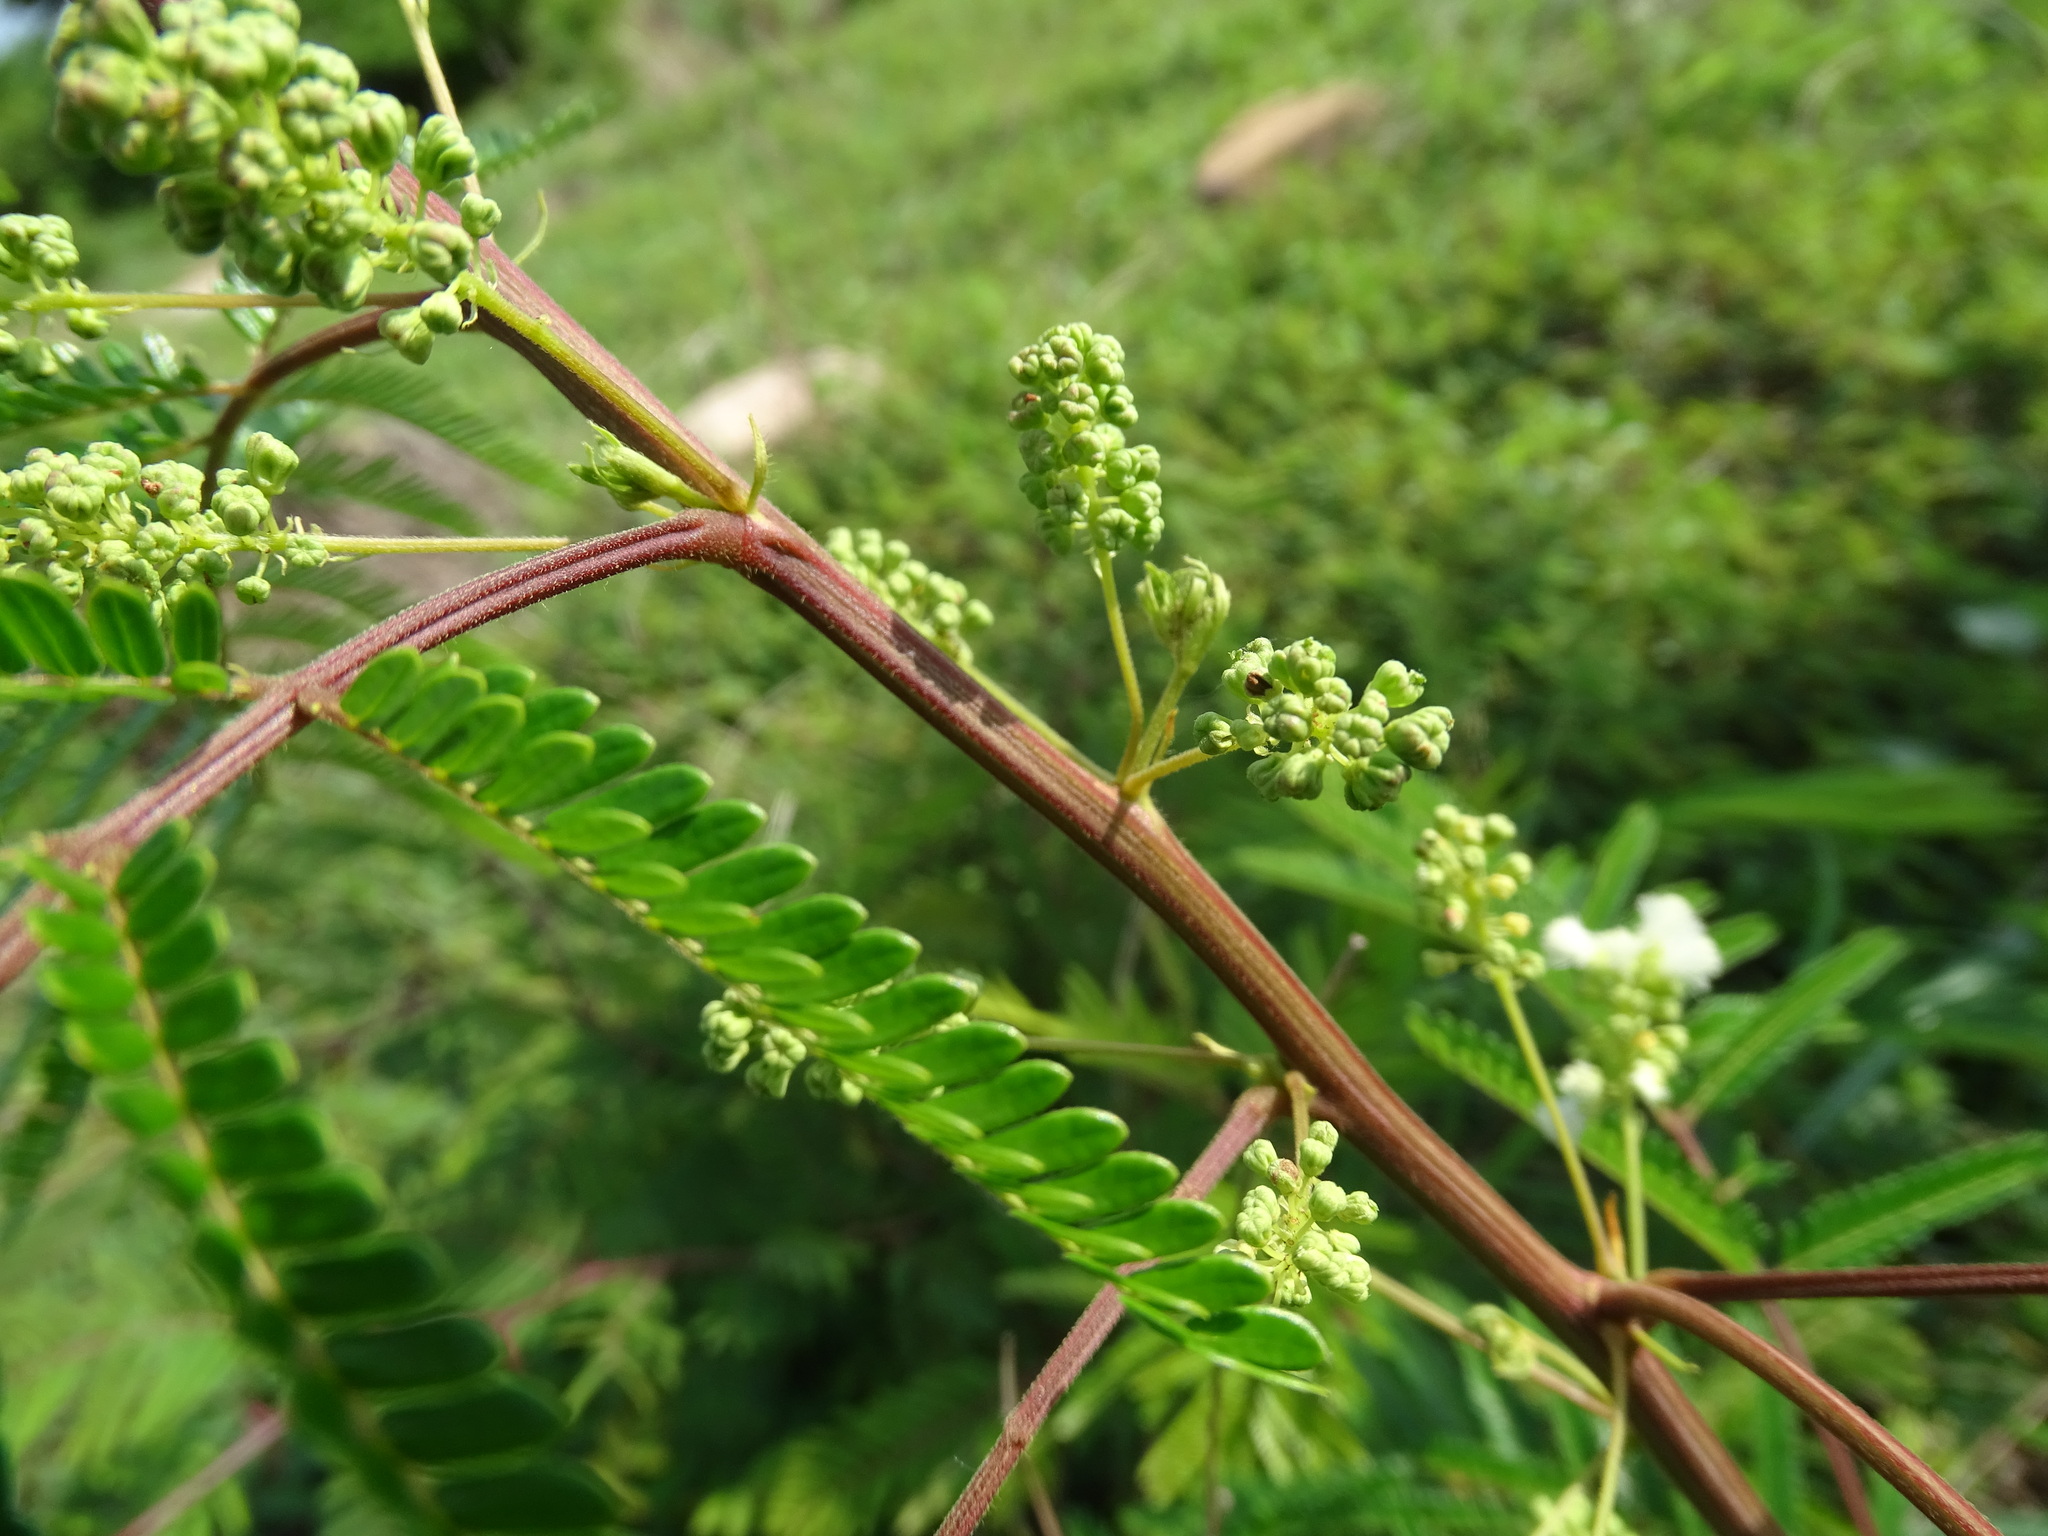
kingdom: Plantae
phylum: Tracheophyta
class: Magnoliopsida
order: Fabales
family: Fabaceae
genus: Acaciella
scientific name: Acaciella villosa
